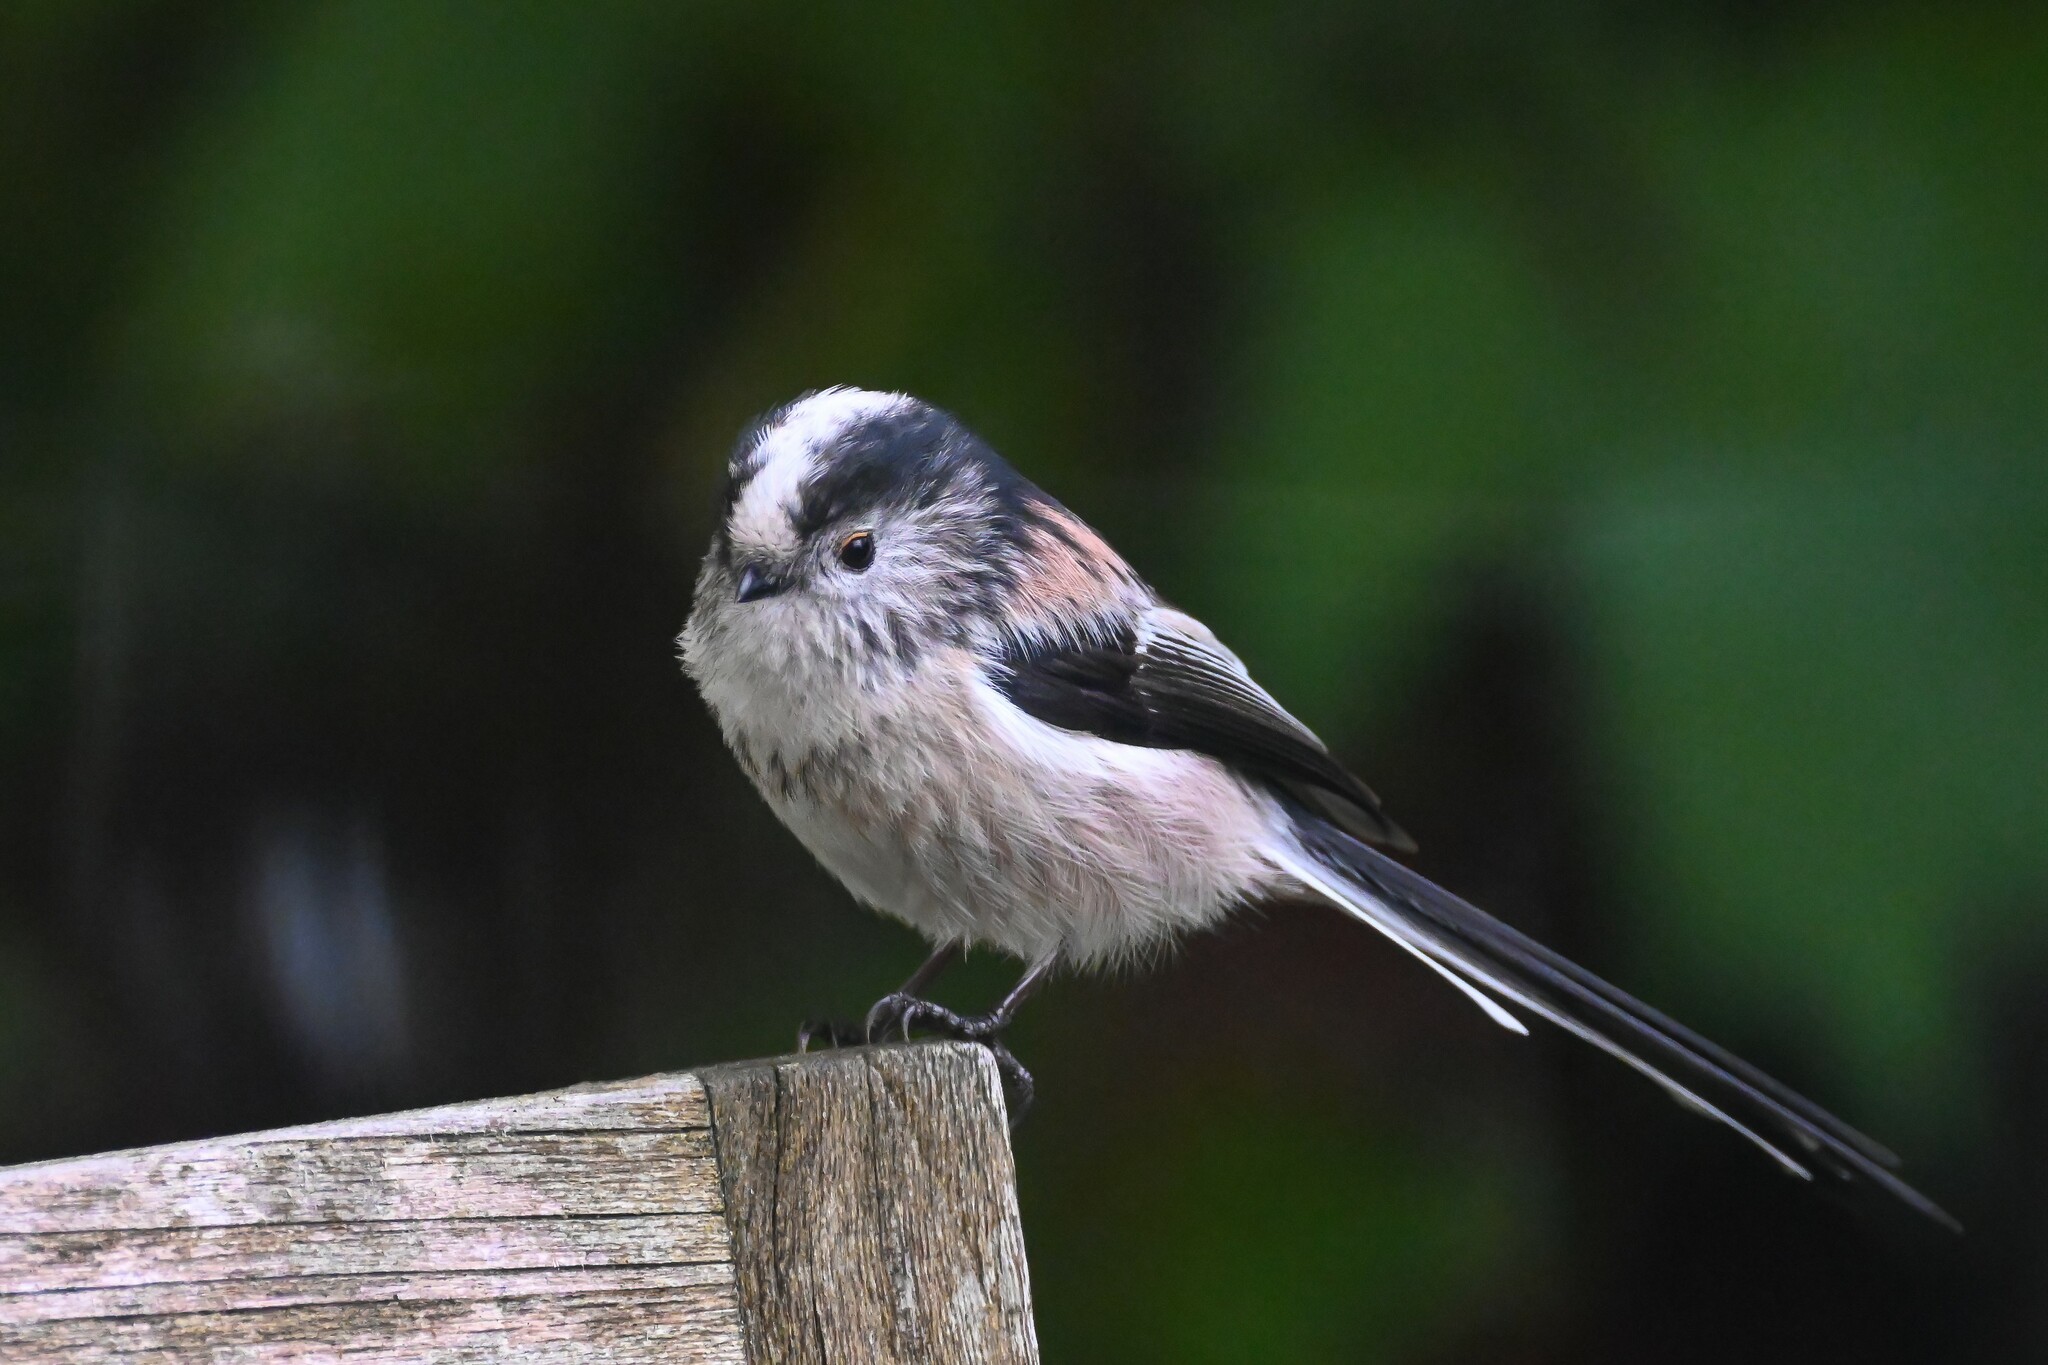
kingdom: Animalia
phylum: Chordata
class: Aves
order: Passeriformes
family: Aegithalidae
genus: Aegithalos
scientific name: Aegithalos caudatus
